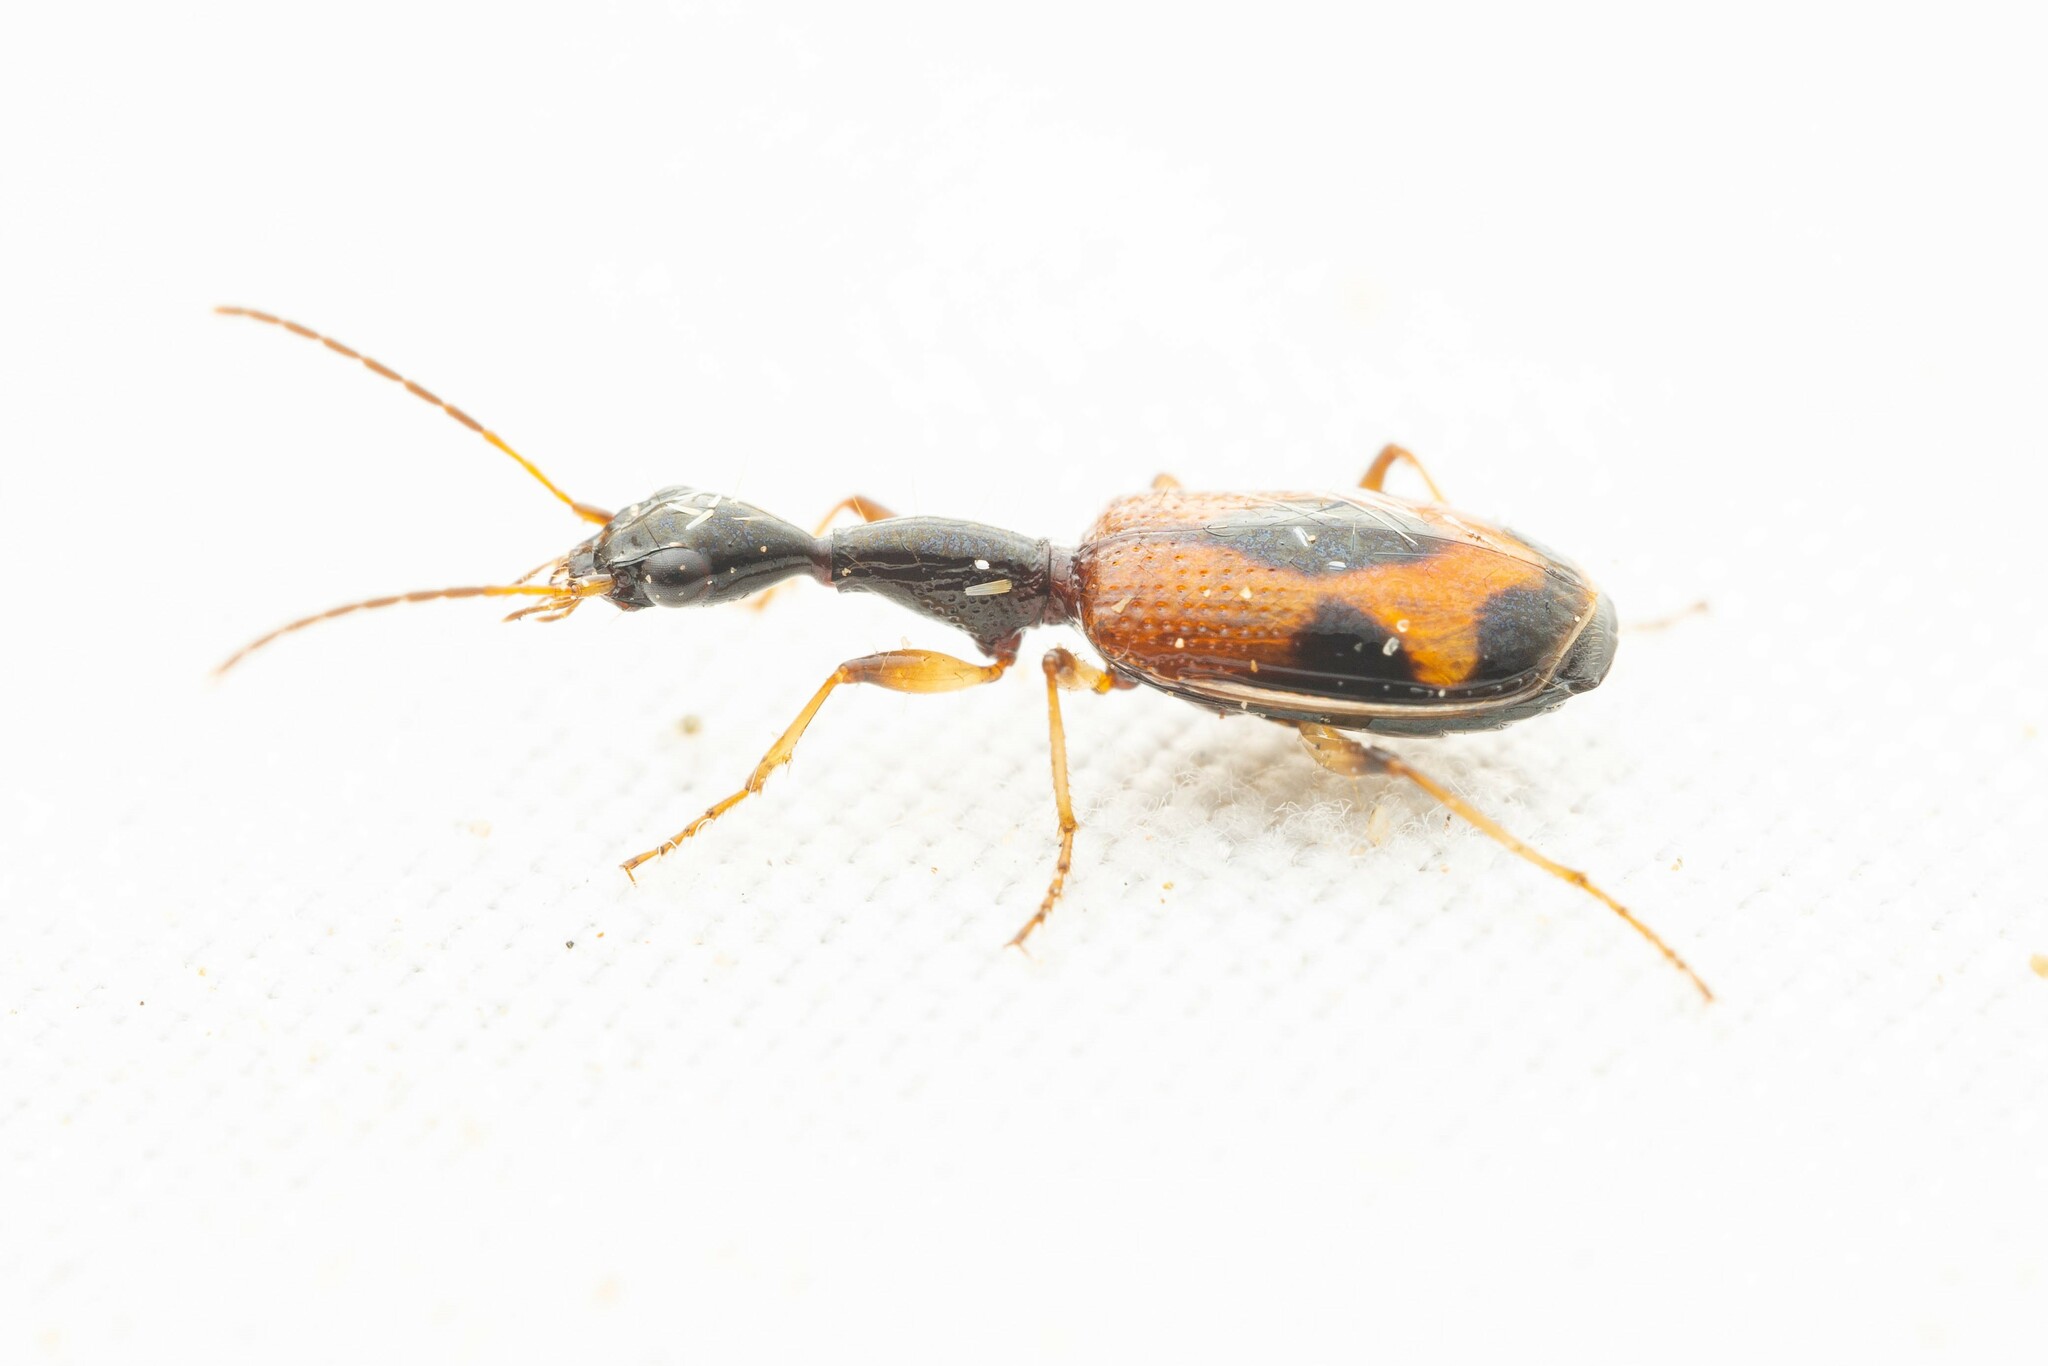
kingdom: Animalia
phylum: Arthropoda
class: Insecta
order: Coleoptera
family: Carabidae
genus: Colliuris
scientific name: Colliuris pensylvanica
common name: Long-necked ground beetle
